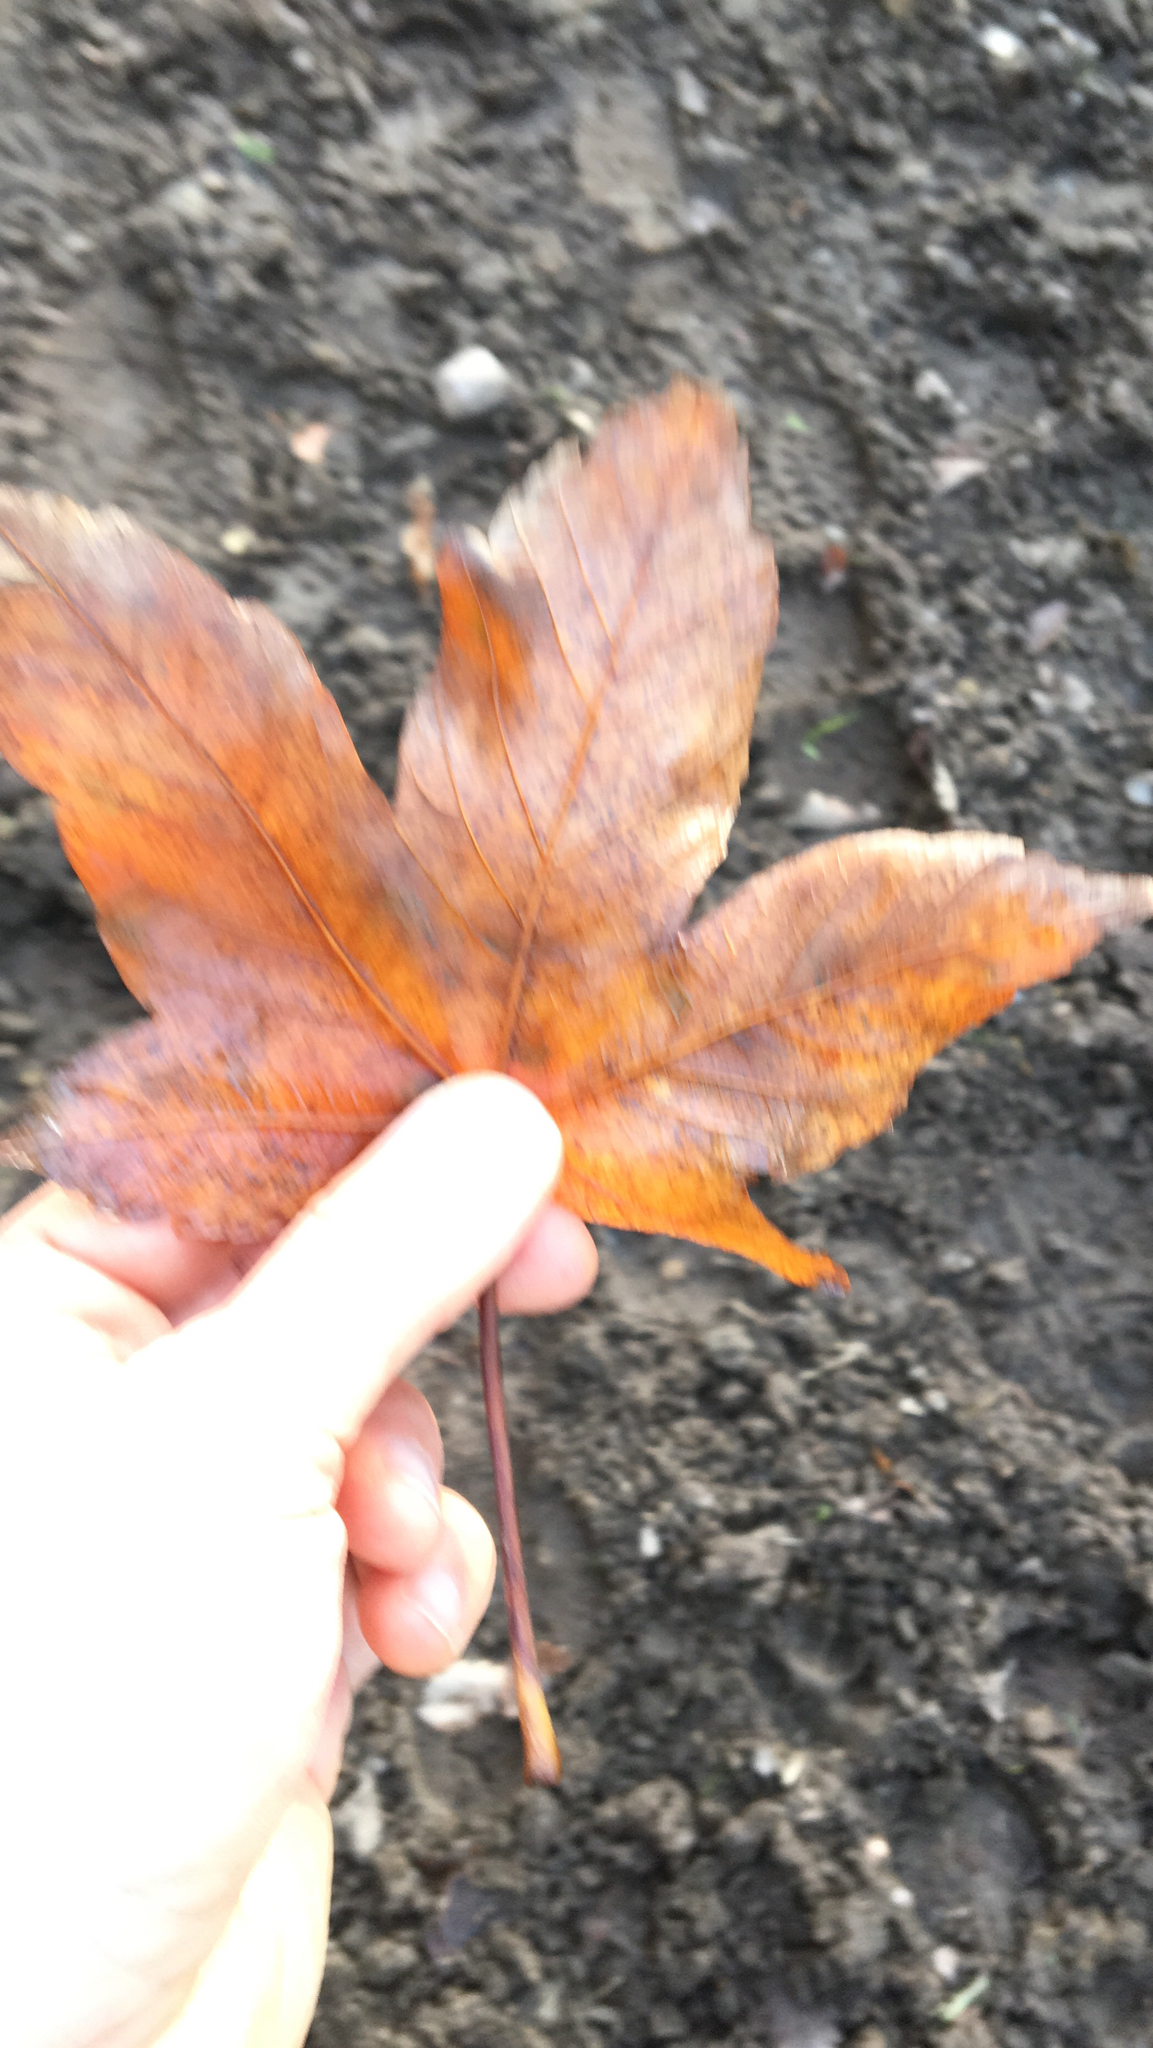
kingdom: Plantae
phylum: Tracheophyta
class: Magnoliopsida
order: Sapindales
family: Sapindaceae
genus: Acer
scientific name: Acer pseudoplatanus
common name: Sycamore
